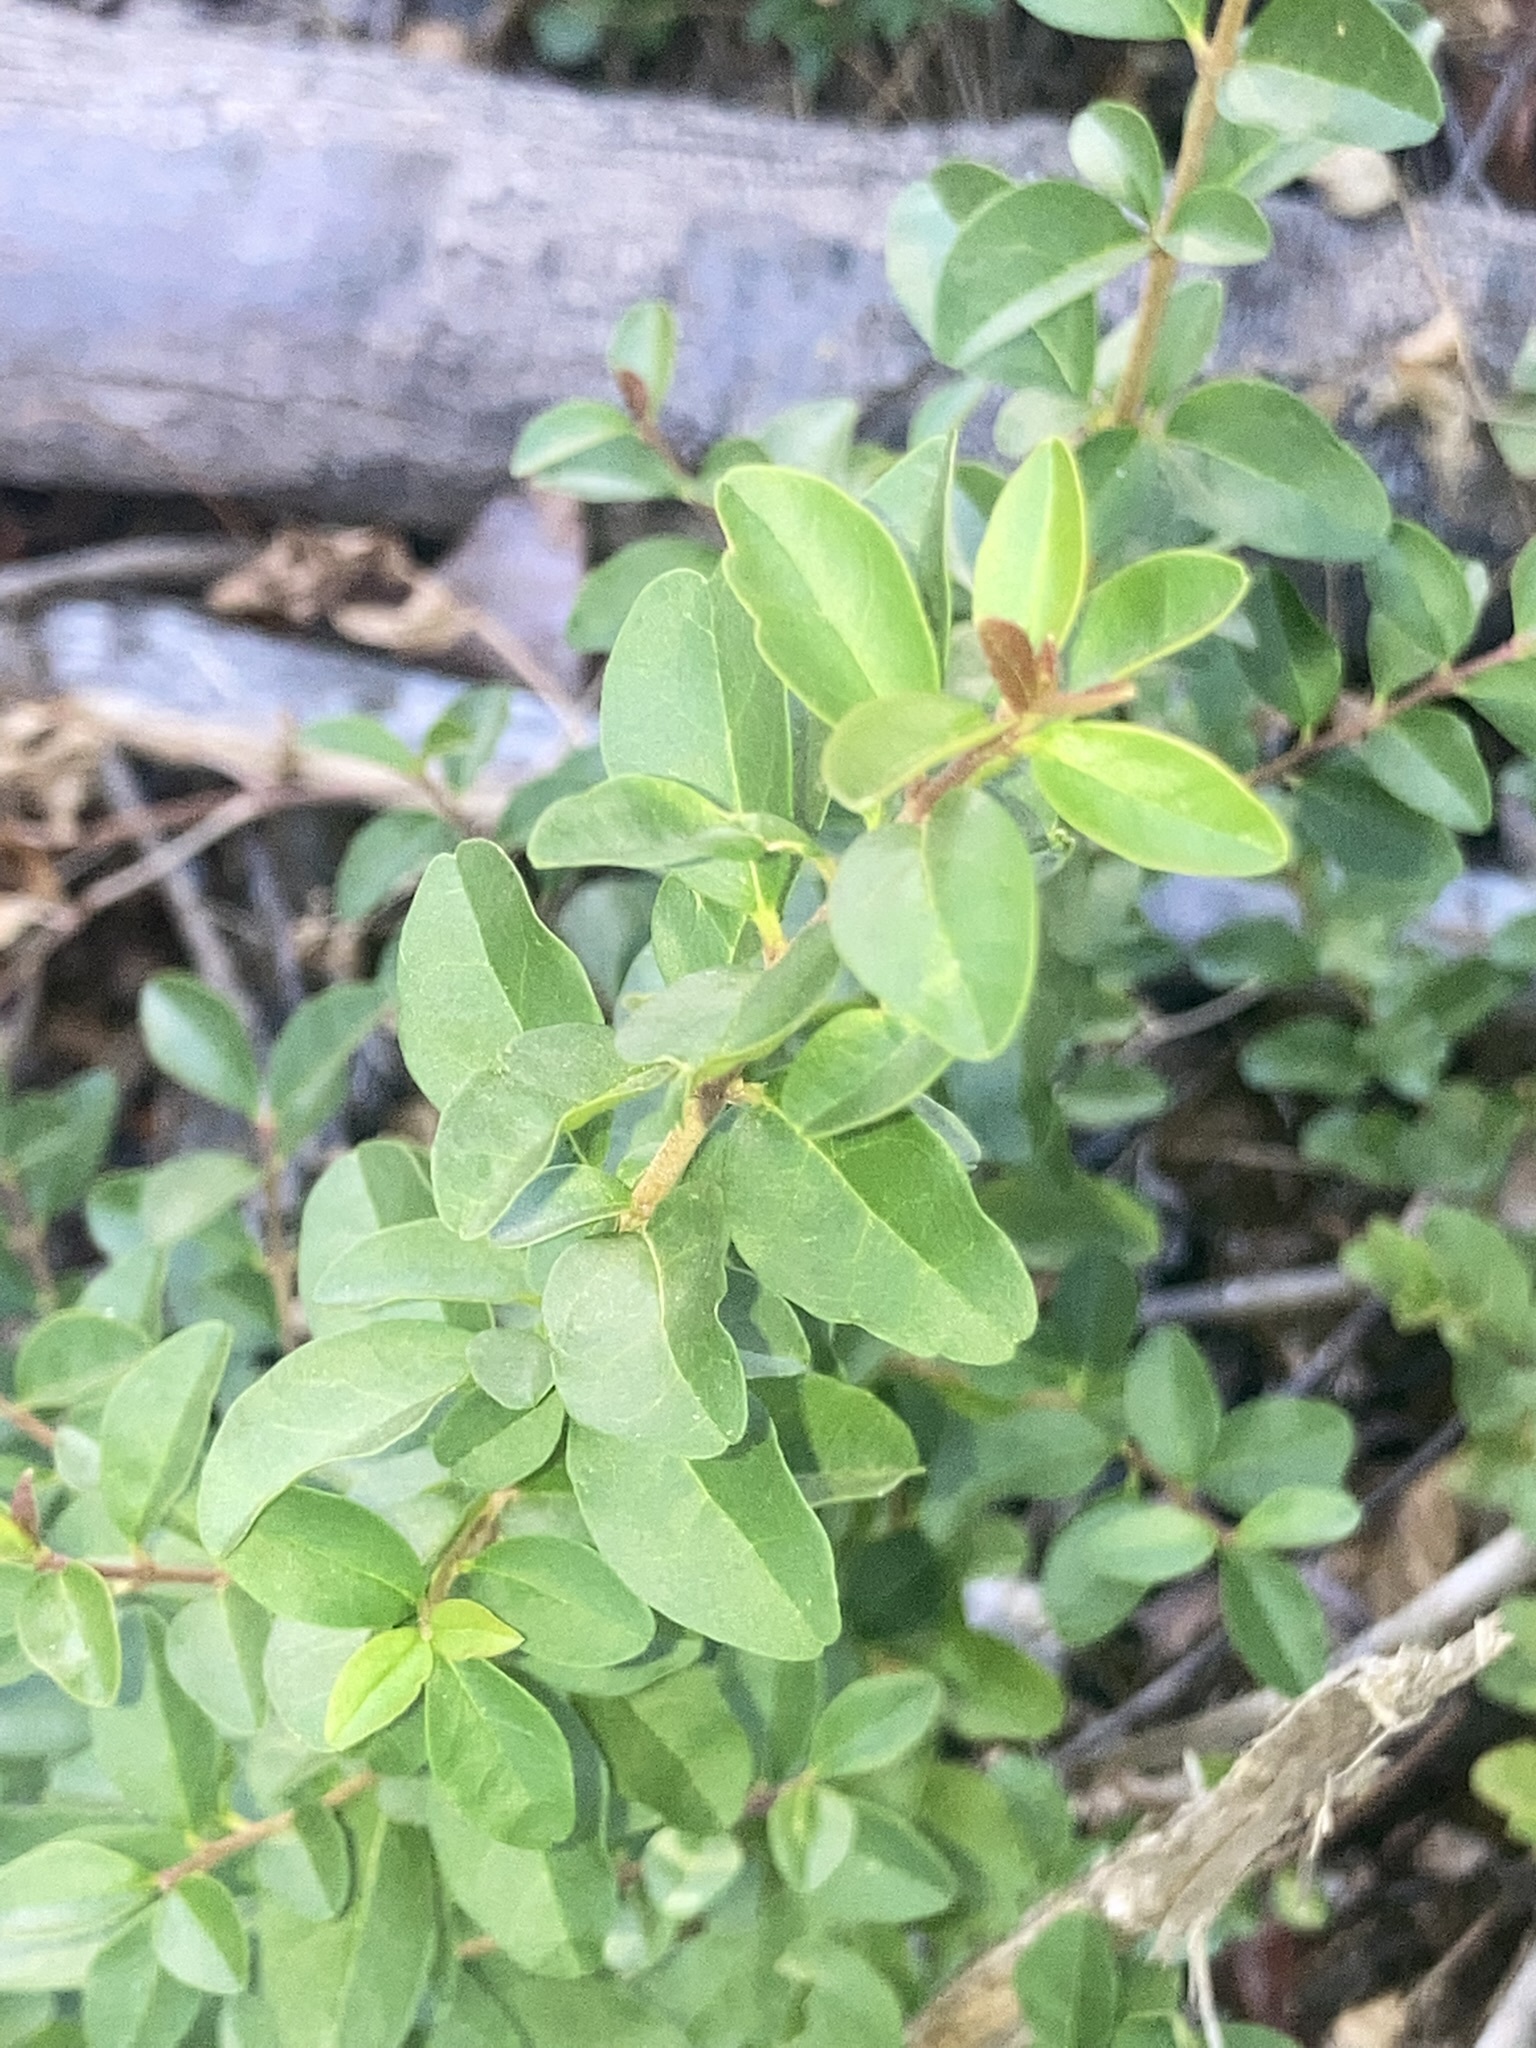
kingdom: Plantae
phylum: Tracheophyta
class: Magnoliopsida
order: Lamiales
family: Oleaceae
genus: Ligustrum
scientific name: Ligustrum sinense
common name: Chinese privet
